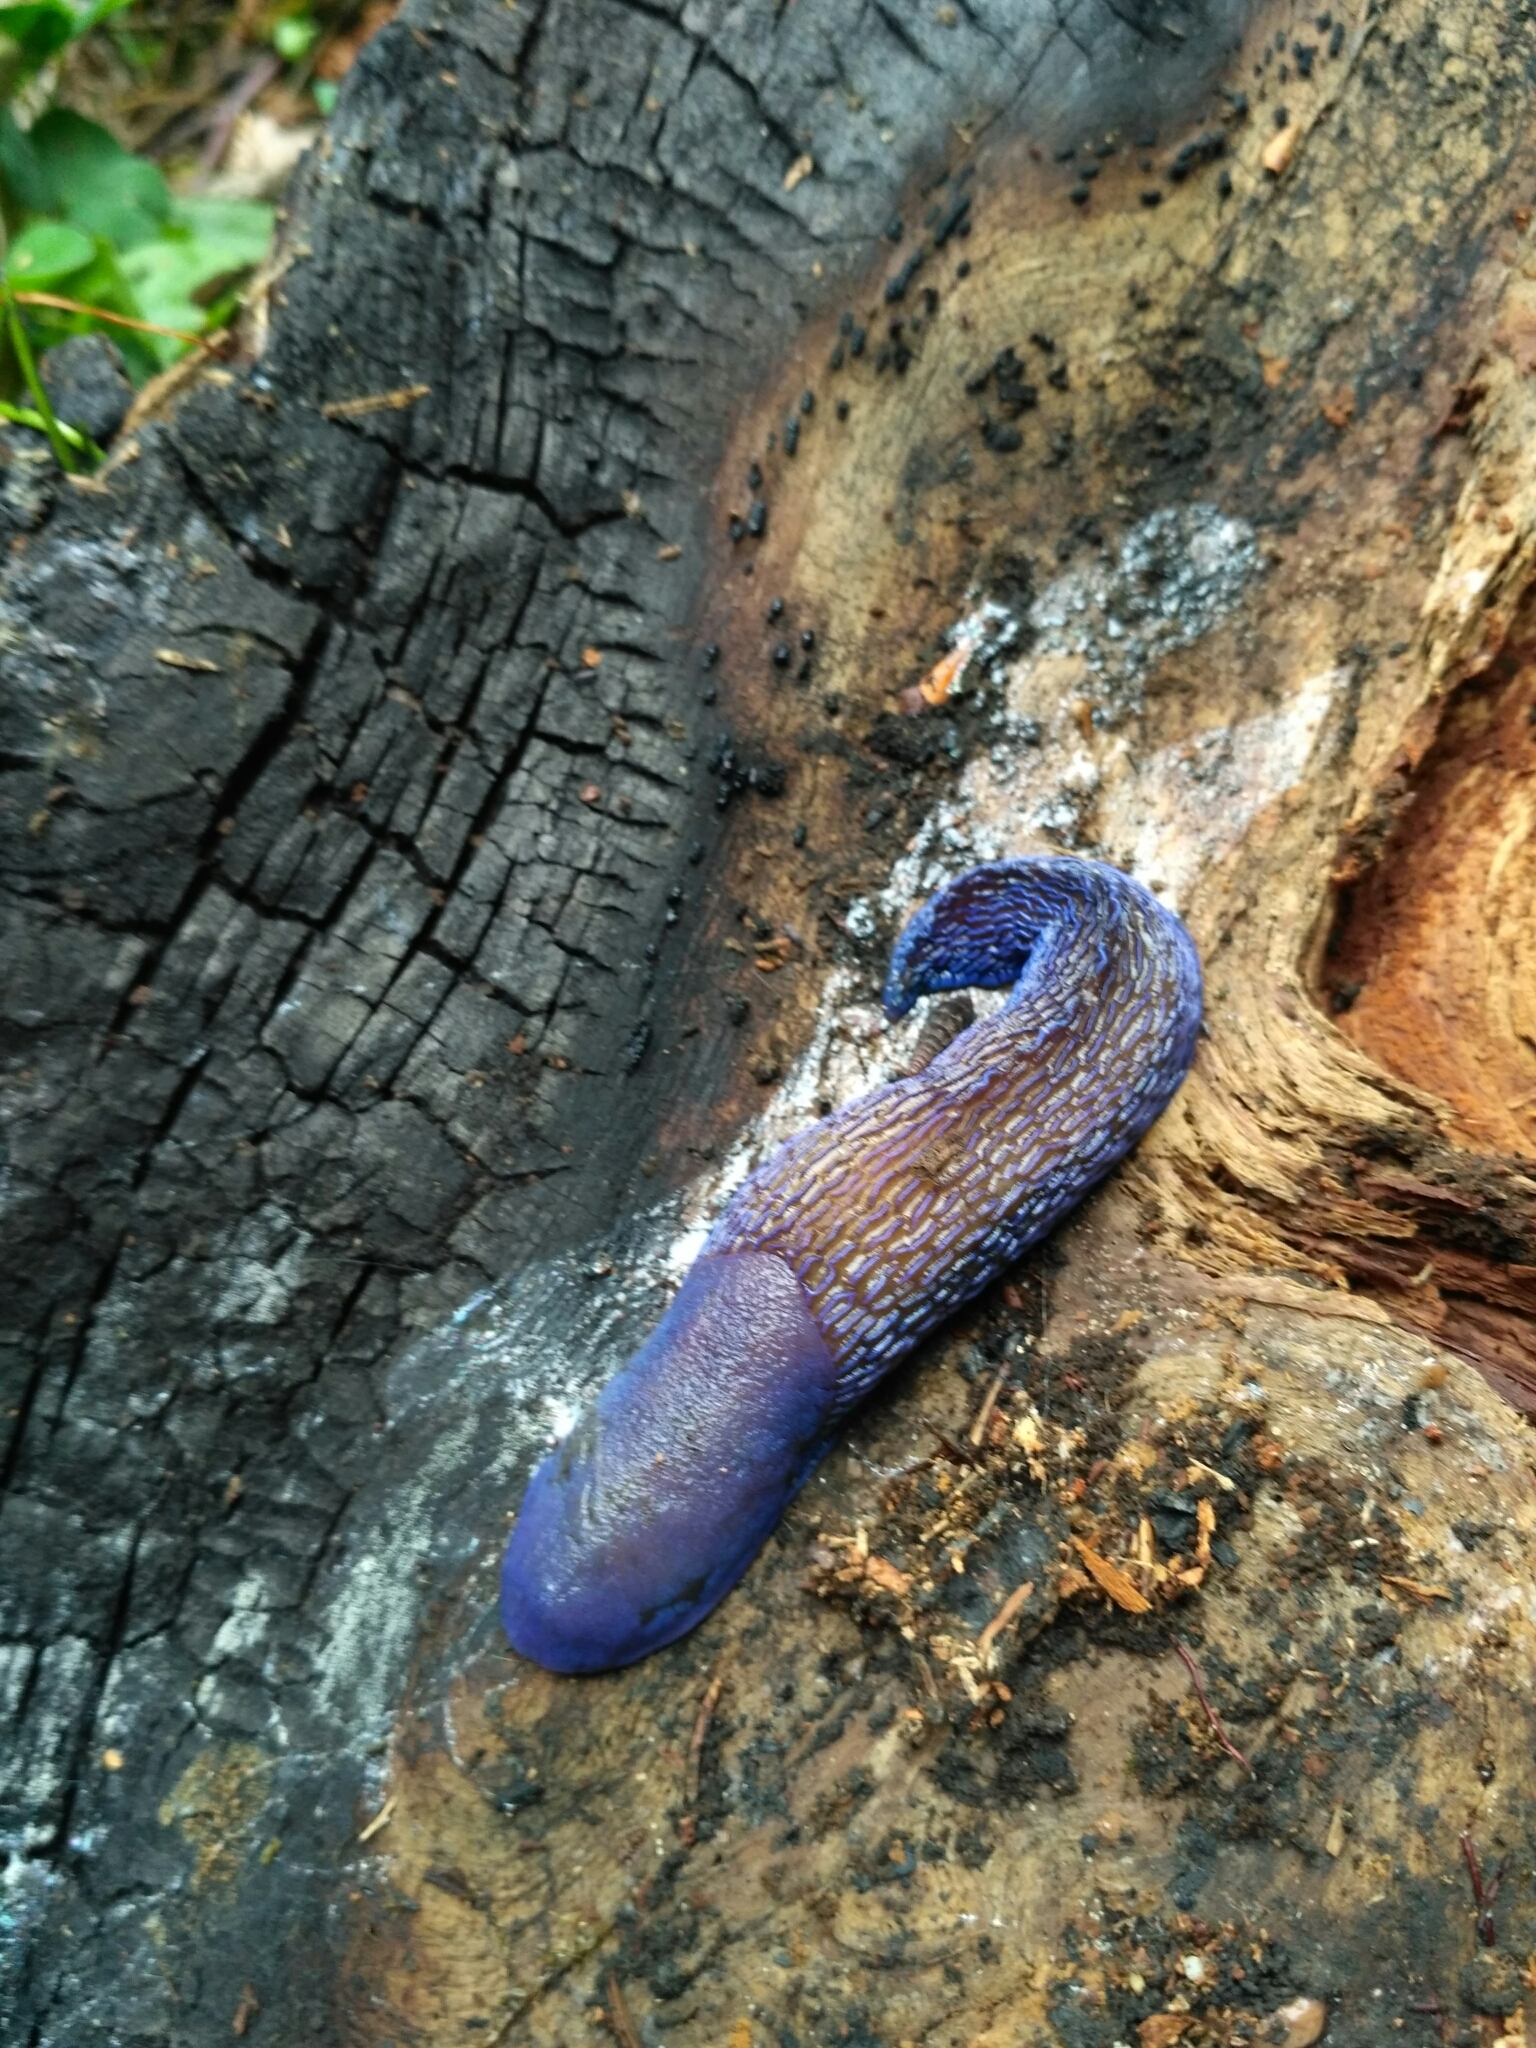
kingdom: Animalia
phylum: Mollusca
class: Gastropoda
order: Stylommatophora
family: Limacidae
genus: Bielzia
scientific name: Bielzia coerulans
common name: Carpathian blue slug
